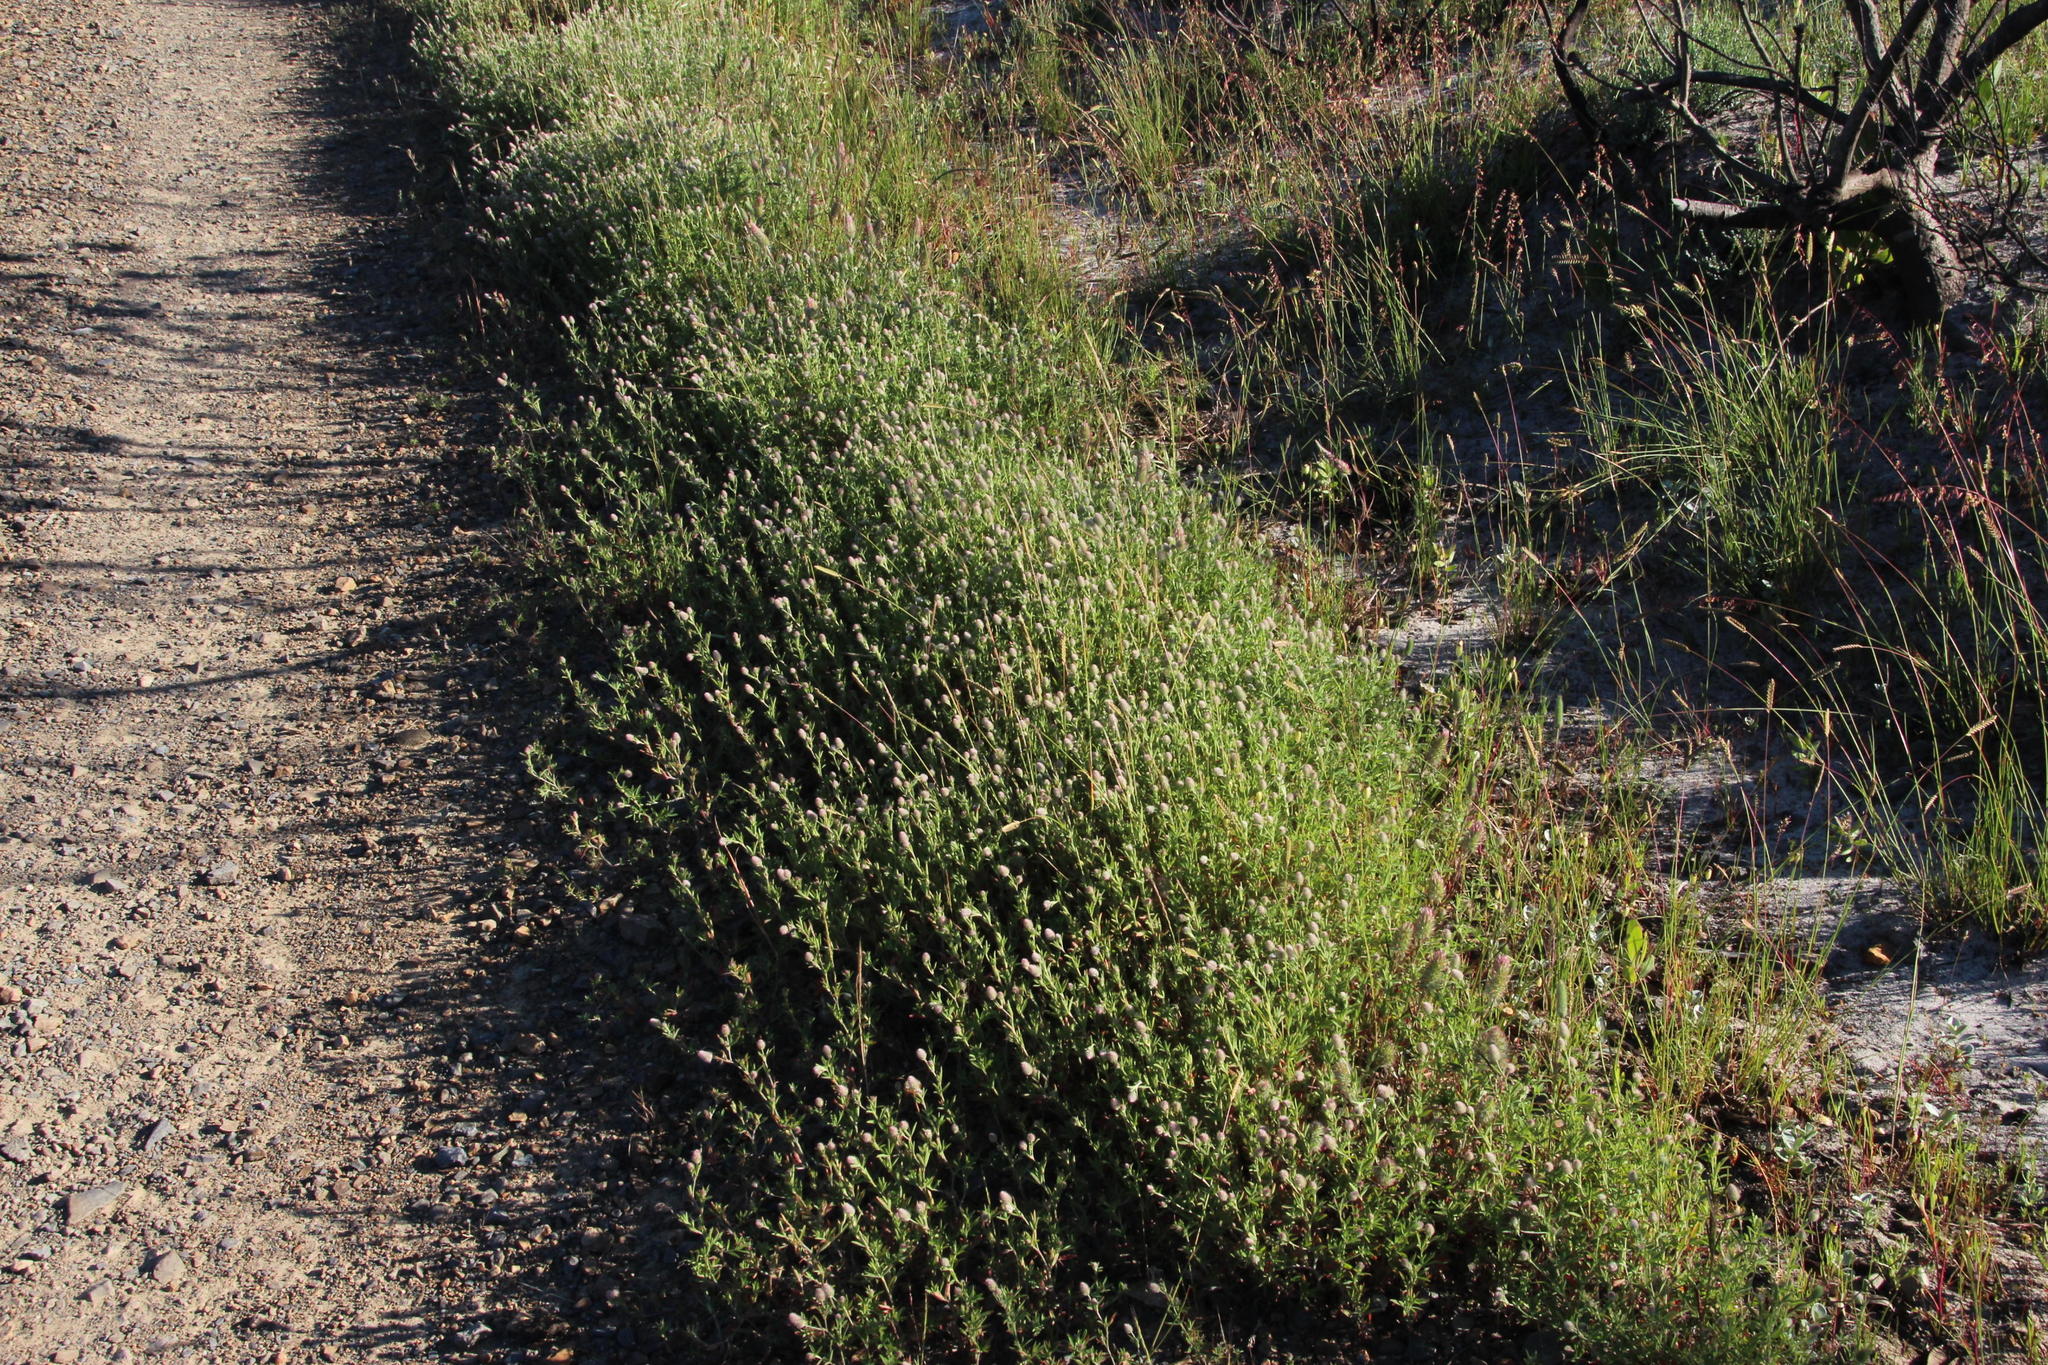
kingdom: Plantae
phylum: Tracheophyta
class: Magnoliopsida
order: Fabales
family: Fabaceae
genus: Trifolium
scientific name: Trifolium arvense
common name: Hare's-foot clover
